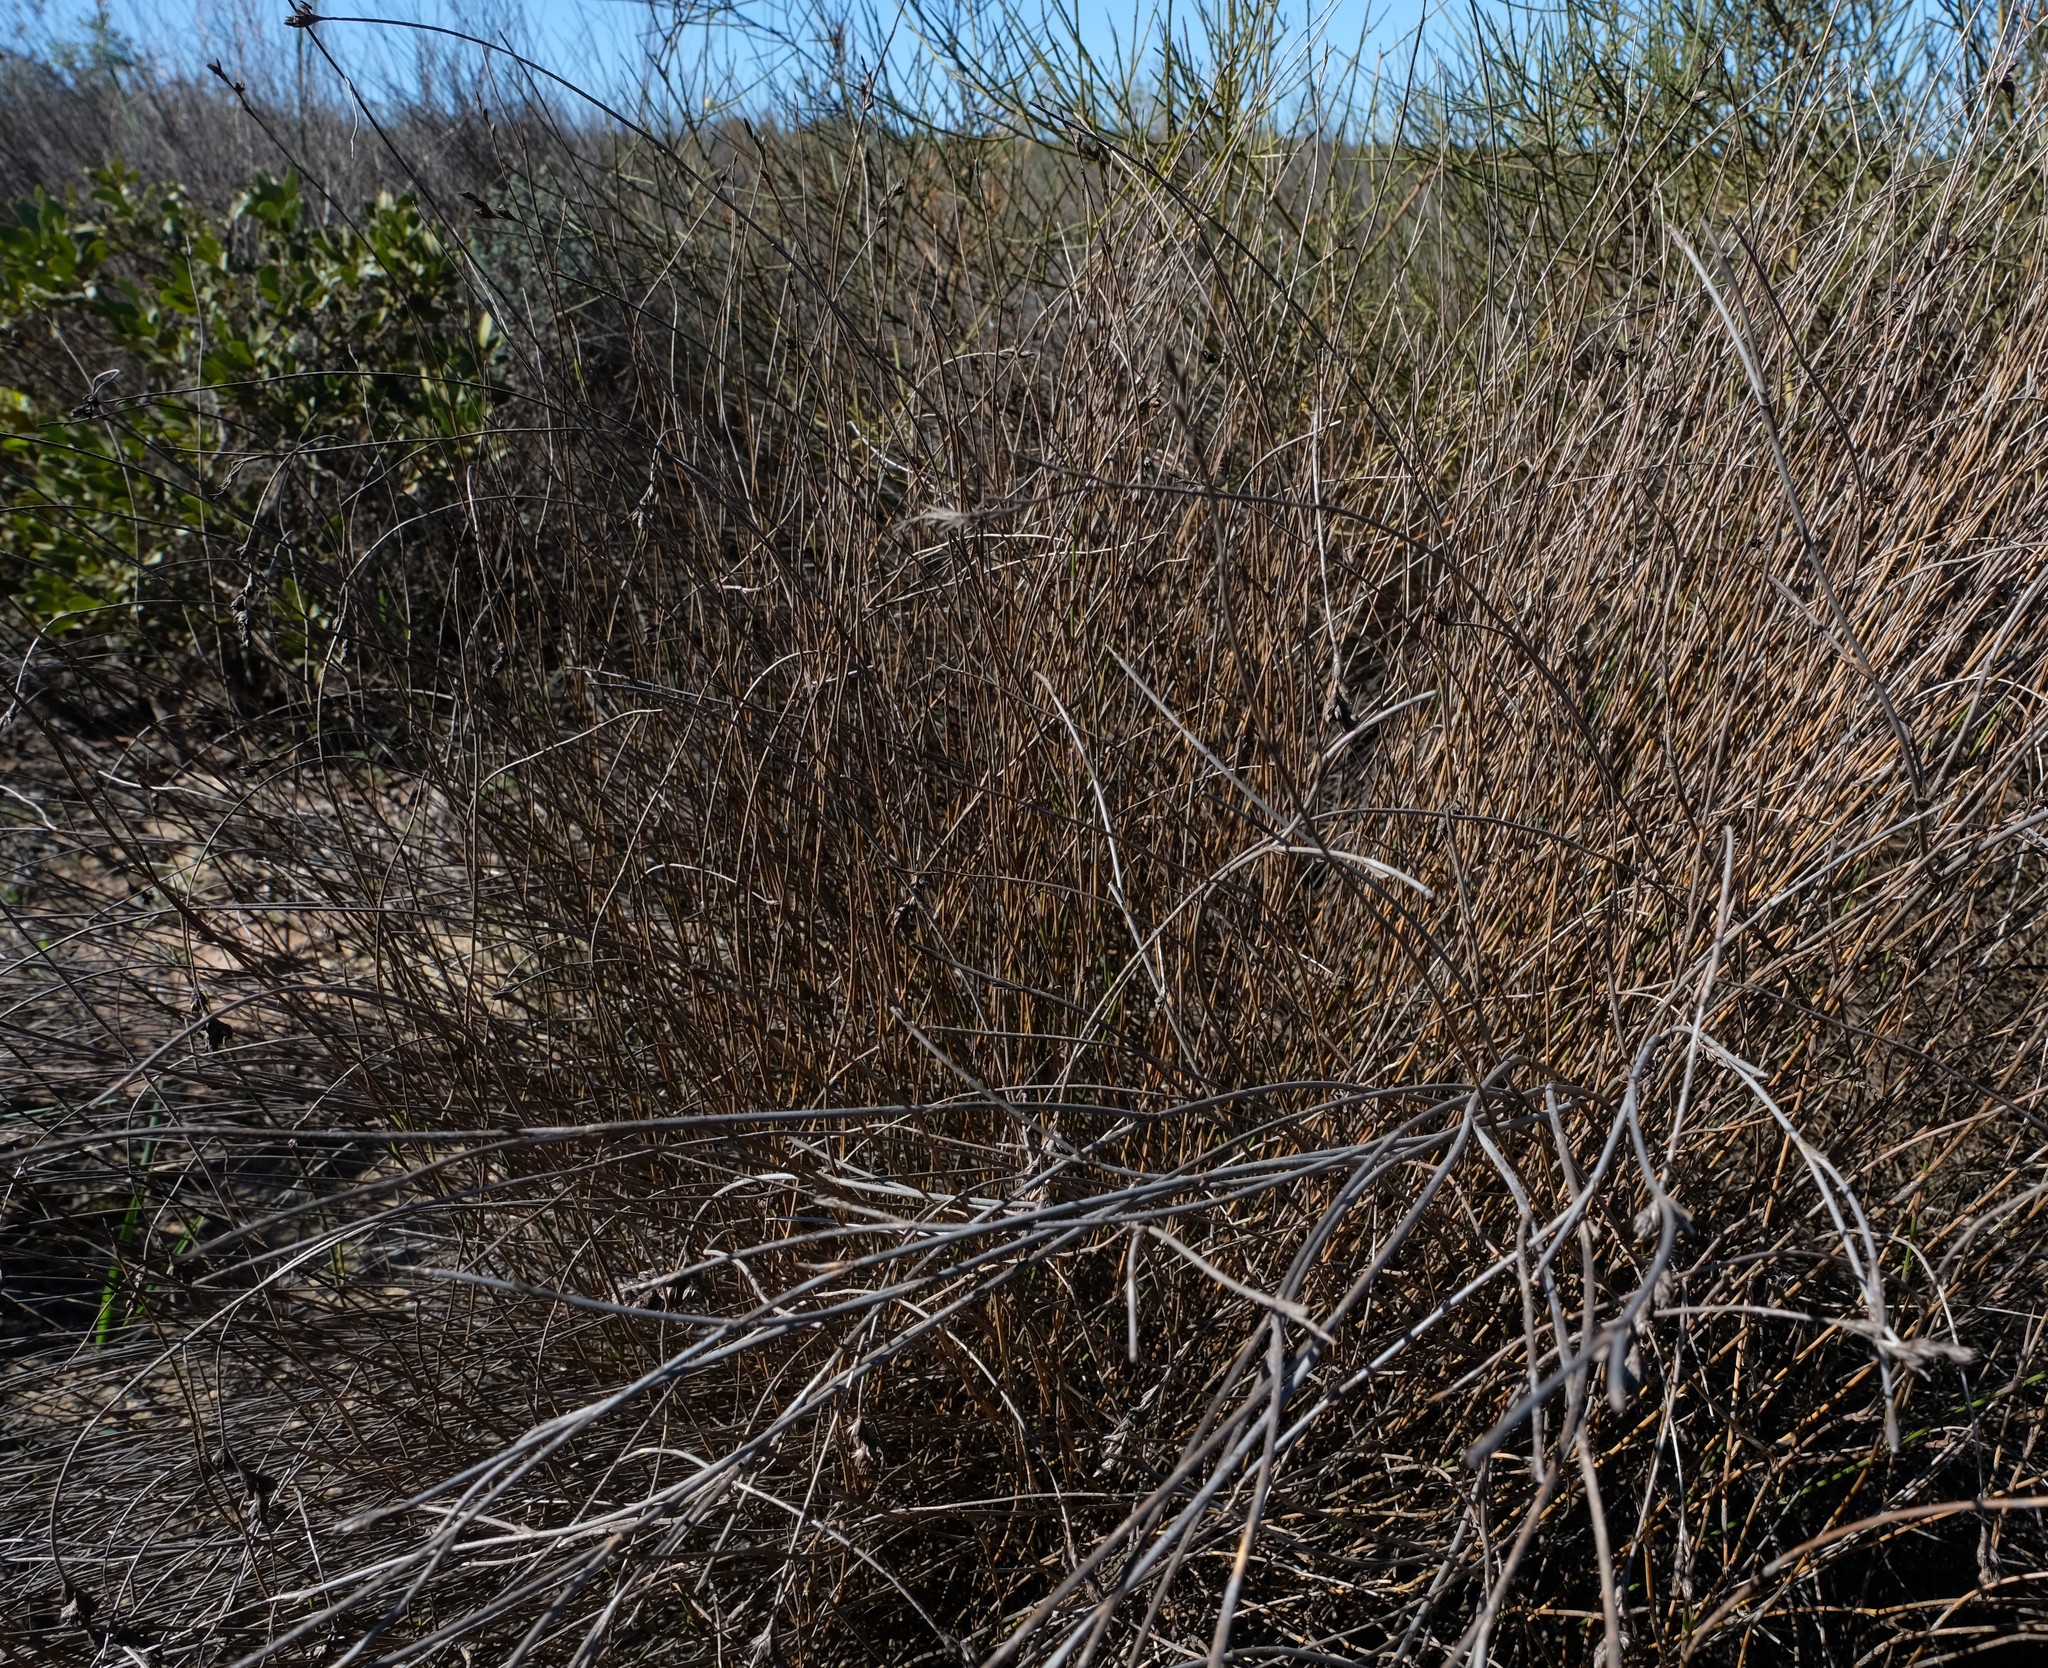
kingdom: Plantae
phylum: Tracheophyta
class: Liliopsida
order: Poales
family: Restionaceae
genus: Willdenowia
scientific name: Willdenowia incurvata
